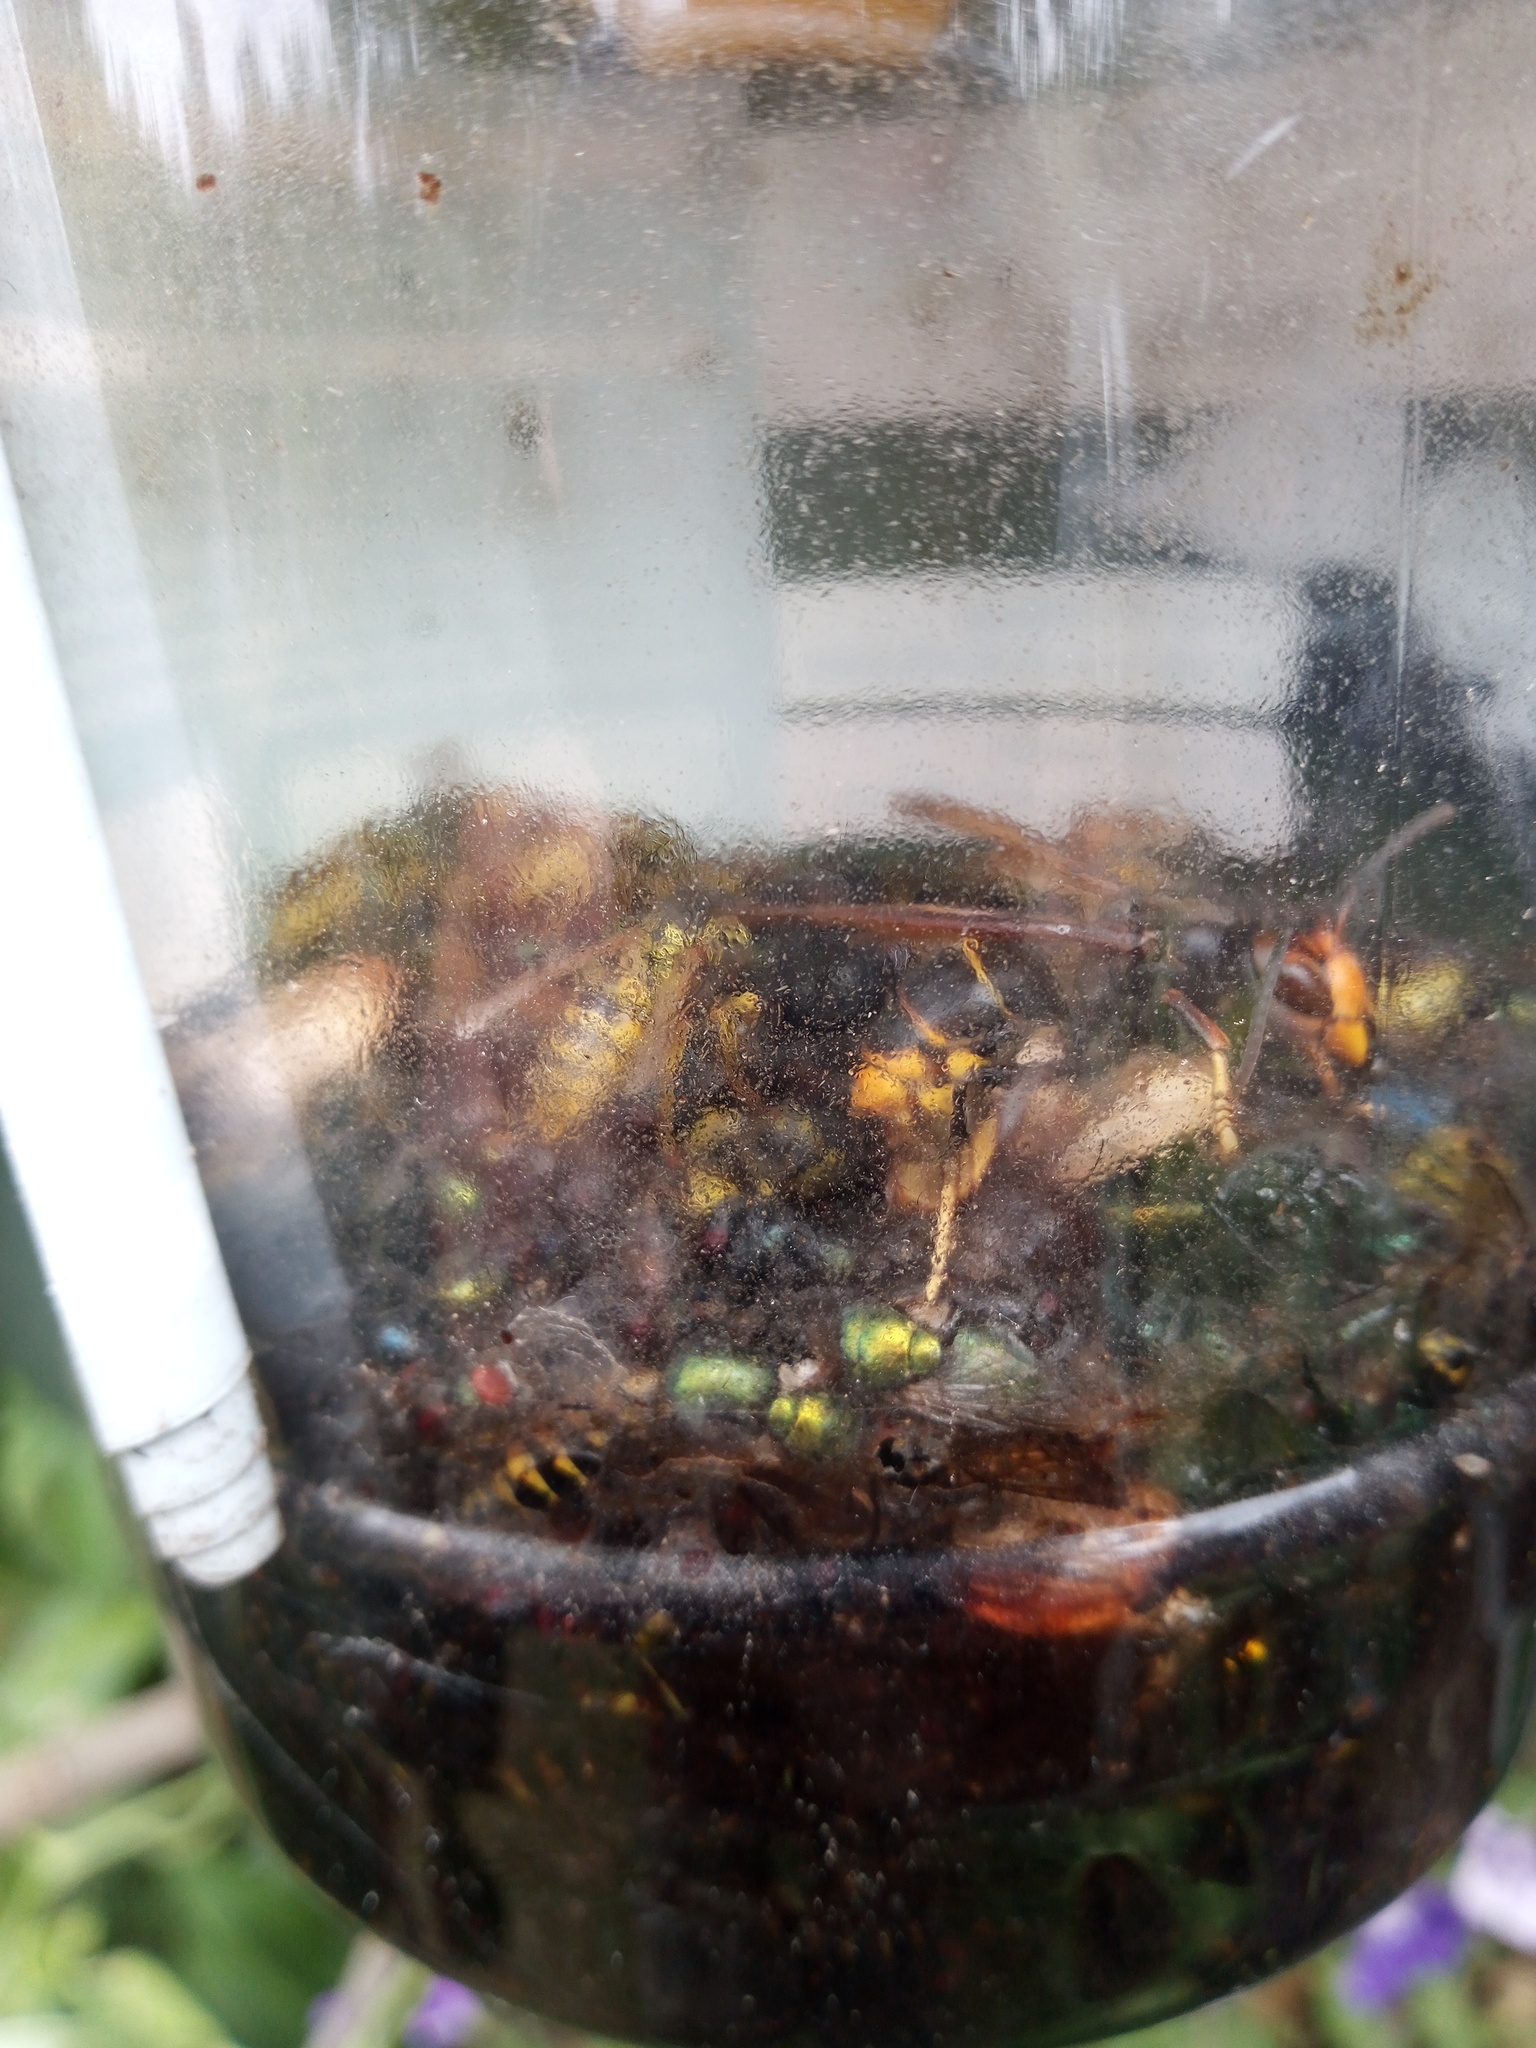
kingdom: Animalia
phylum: Arthropoda
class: Insecta
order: Hymenoptera
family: Vespidae
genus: Vespa
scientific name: Vespa velutina
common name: Asian hornet
